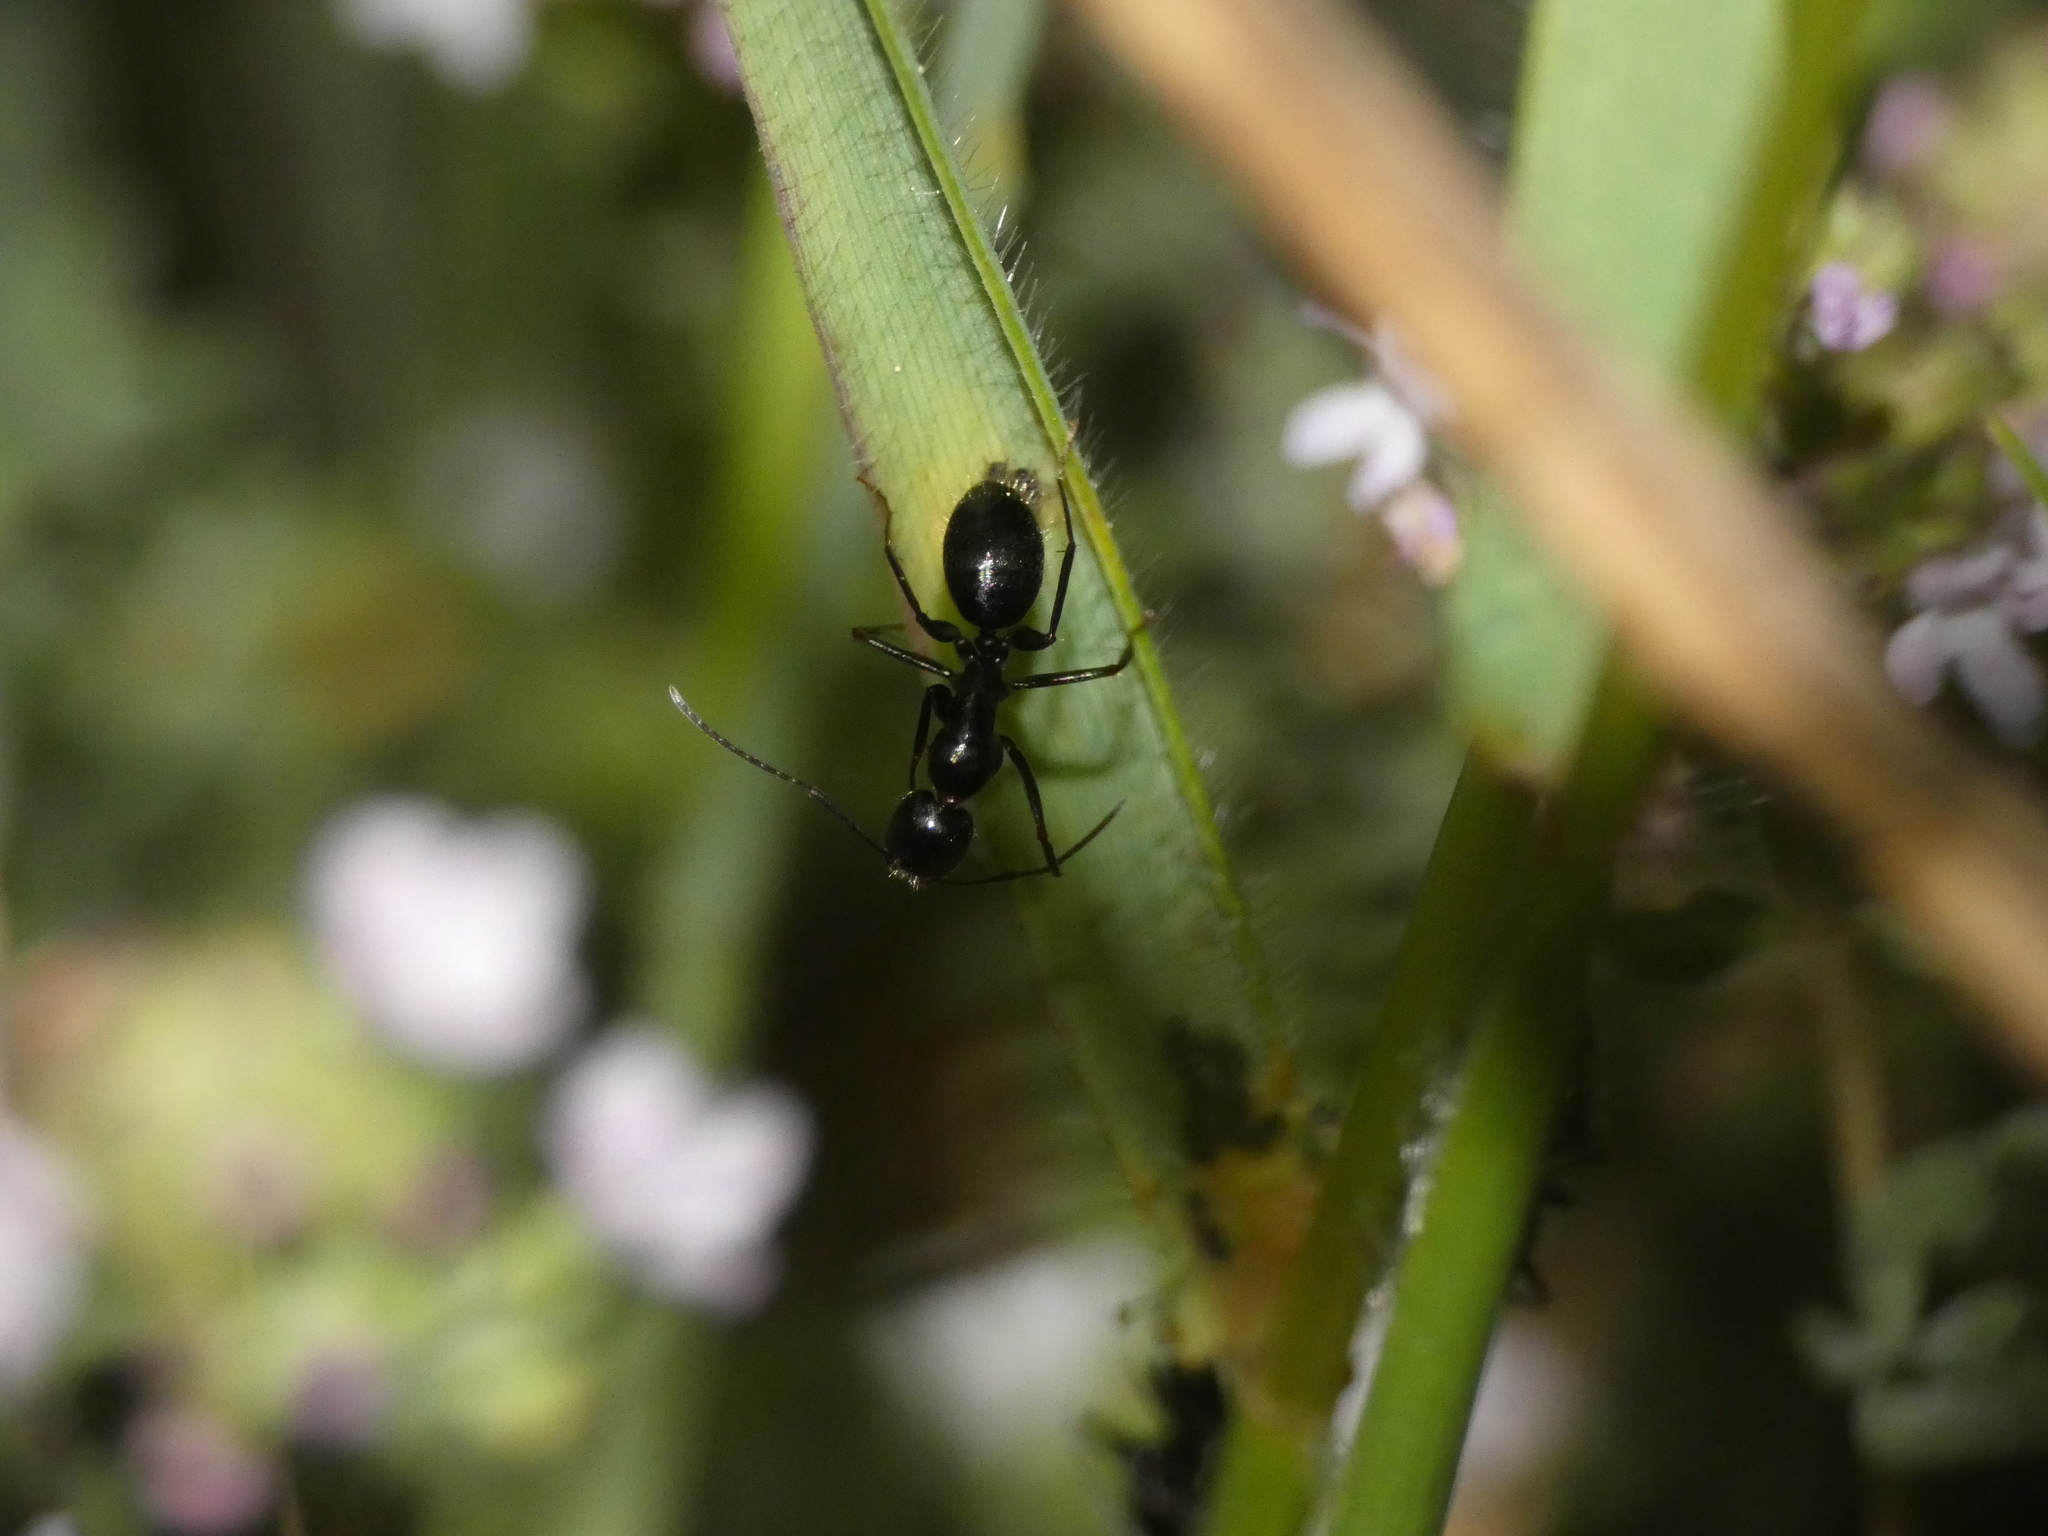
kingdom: Animalia
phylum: Arthropoda
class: Insecta
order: Hymenoptera
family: Formicidae
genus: Camponotus
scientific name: Camponotus aethiops
